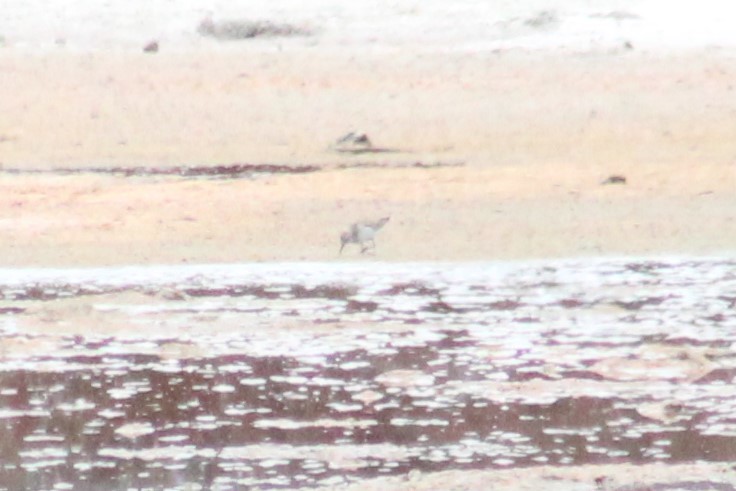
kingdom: Animalia
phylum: Chordata
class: Aves
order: Charadriiformes
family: Scolopacidae
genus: Calidris
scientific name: Calidris
